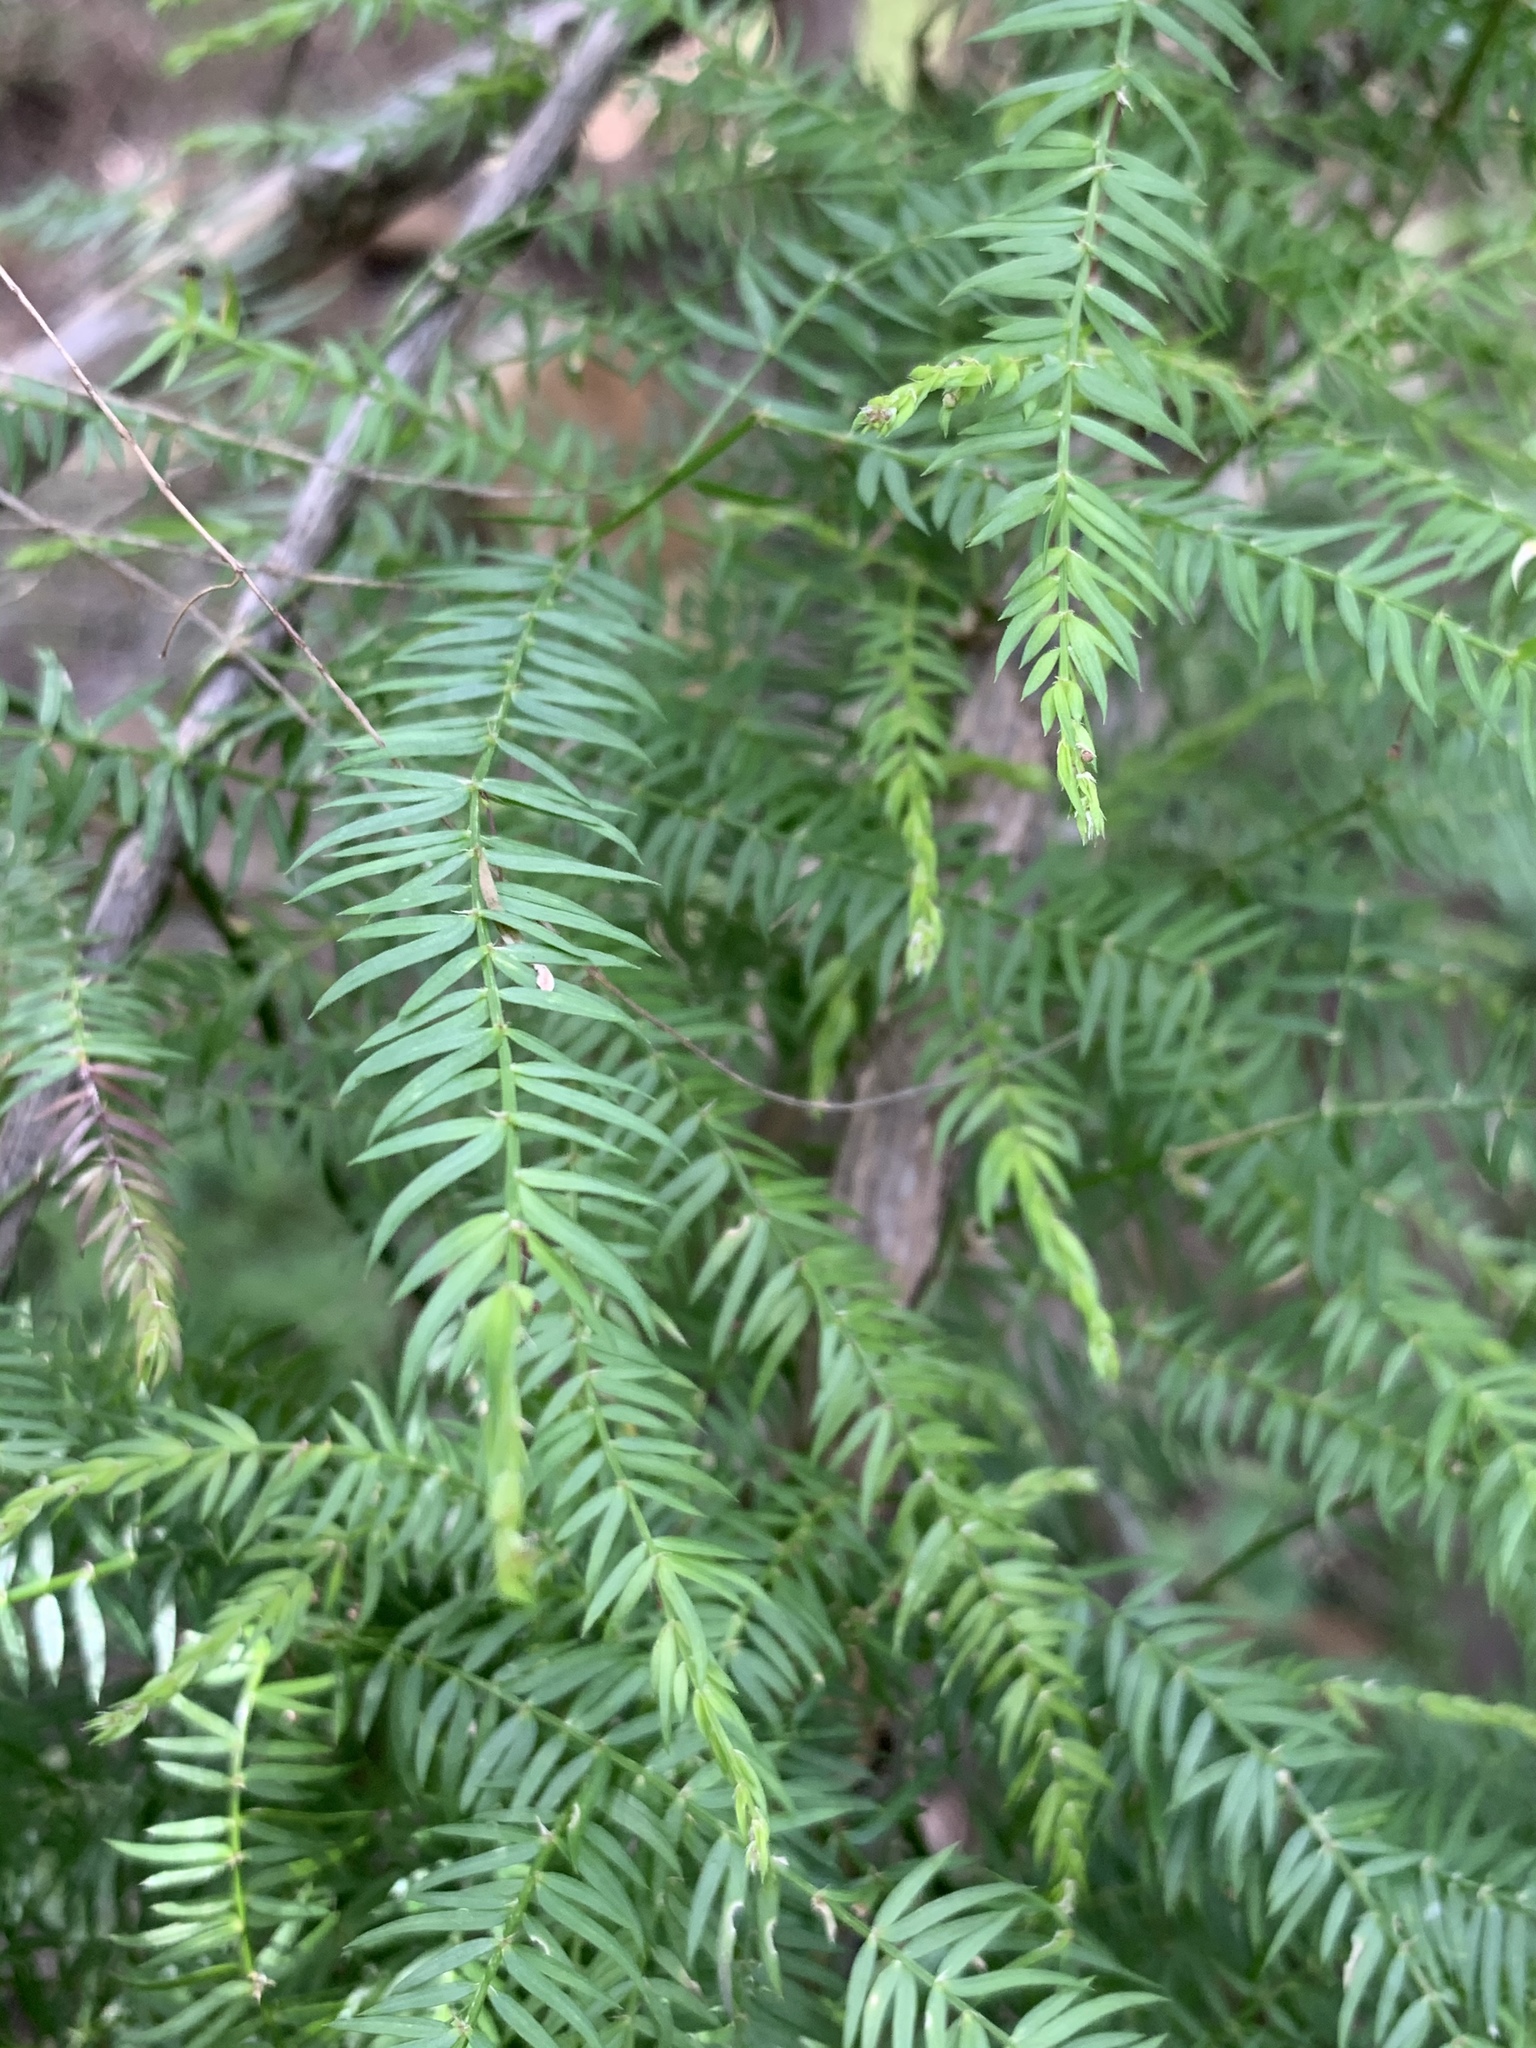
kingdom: Plantae
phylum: Tracheophyta
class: Liliopsida
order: Asparagales
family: Asparagaceae
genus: Asparagus
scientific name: Asparagus scandens
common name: Asparagus-fern
